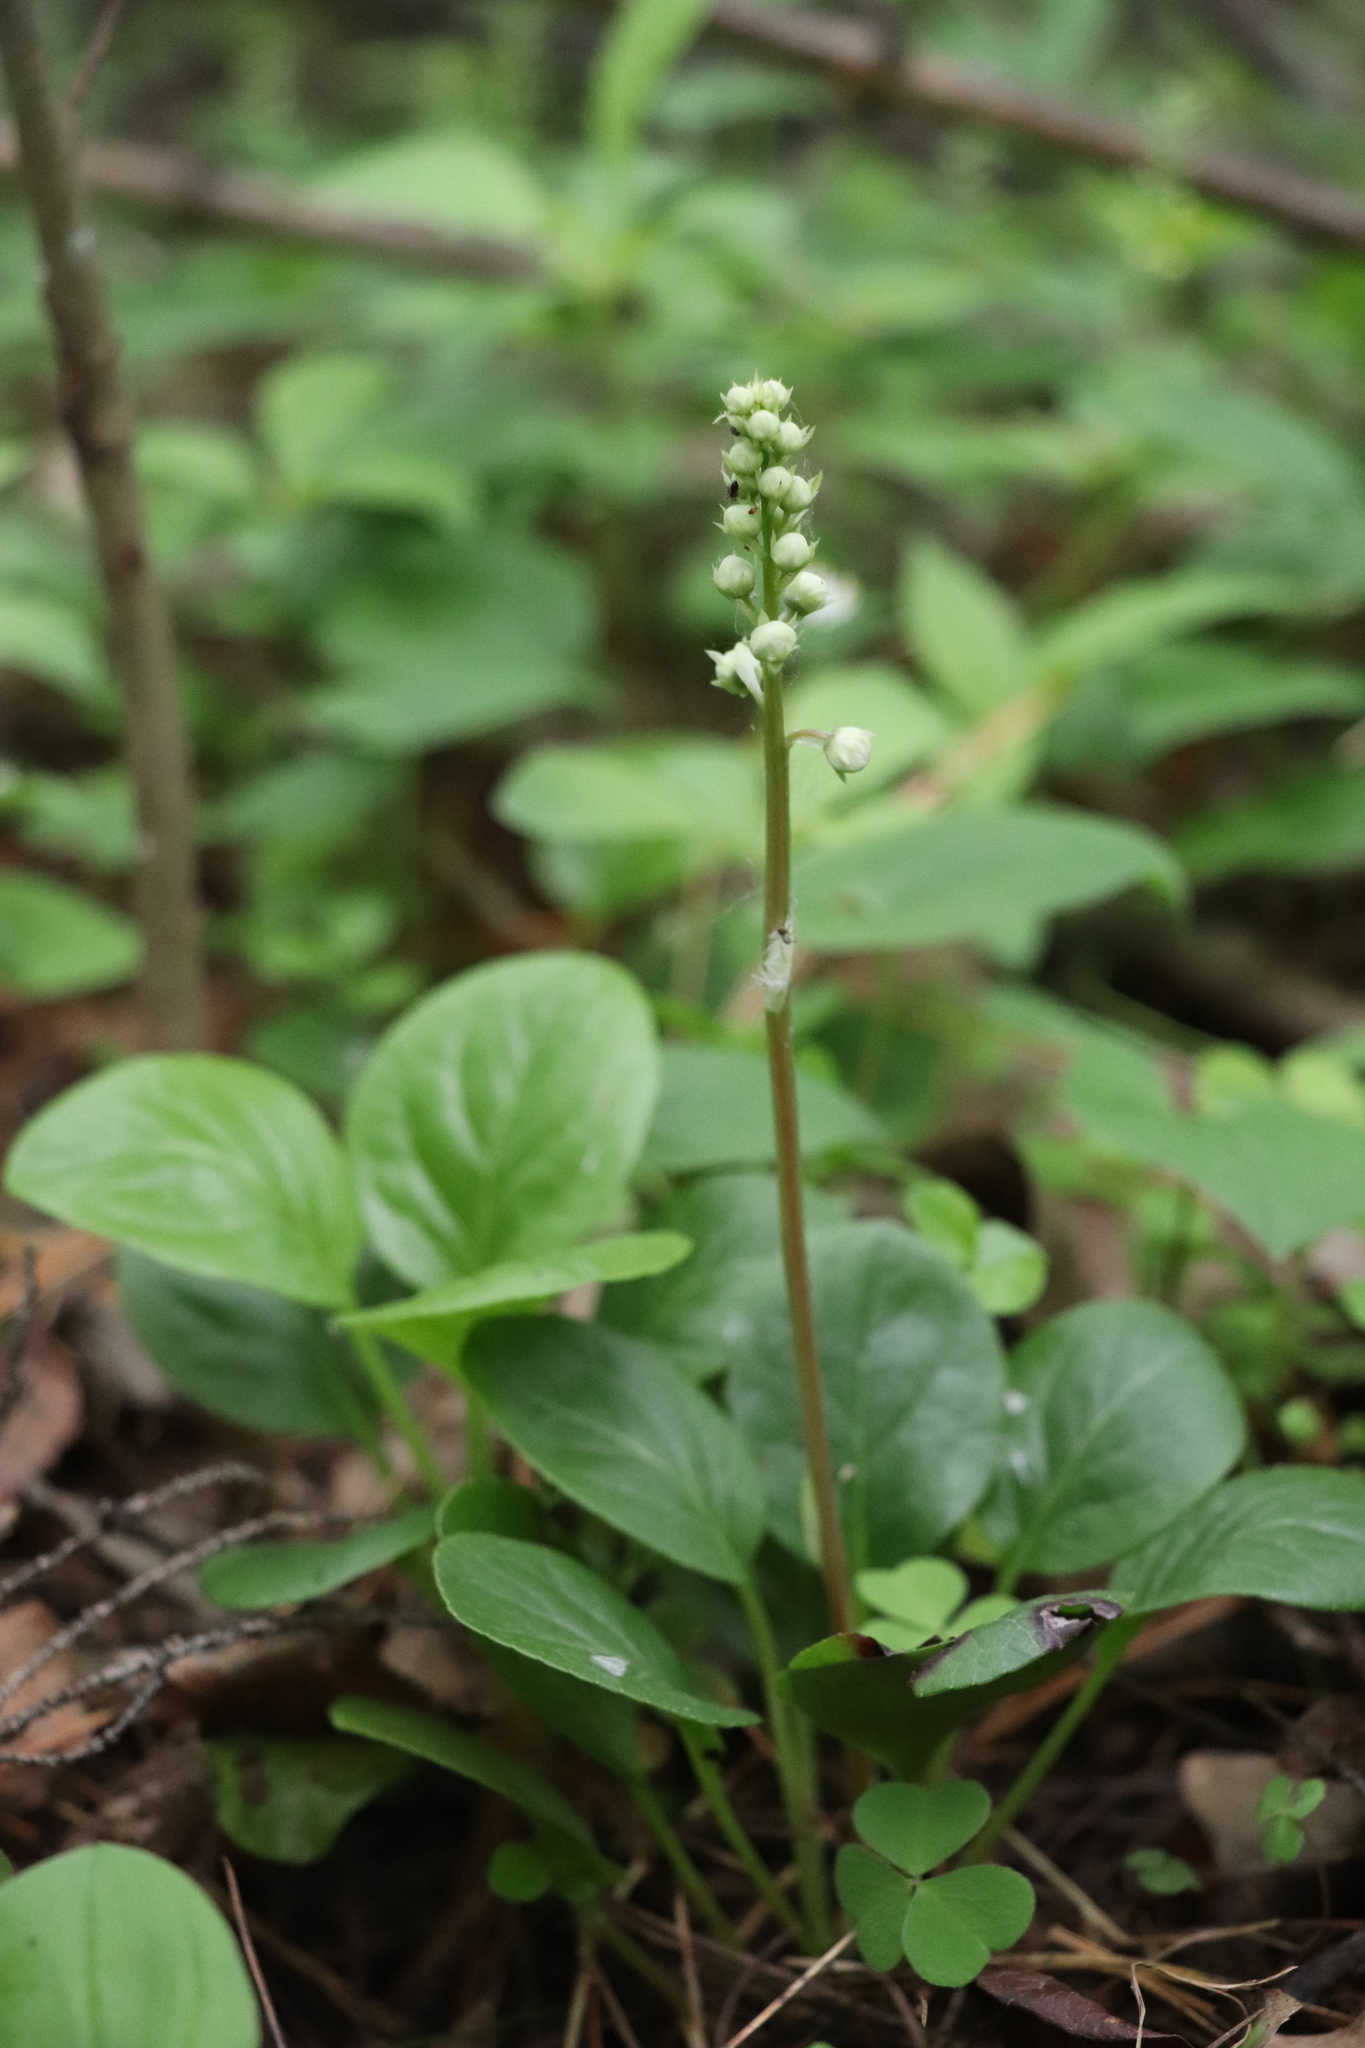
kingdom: Plantae
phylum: Tracheophyta
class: Magnoliopsida
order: Ericales
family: Ericaceae
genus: Pyrola
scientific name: Pyrola rotundifolia
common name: Round-leaved wintergreen
